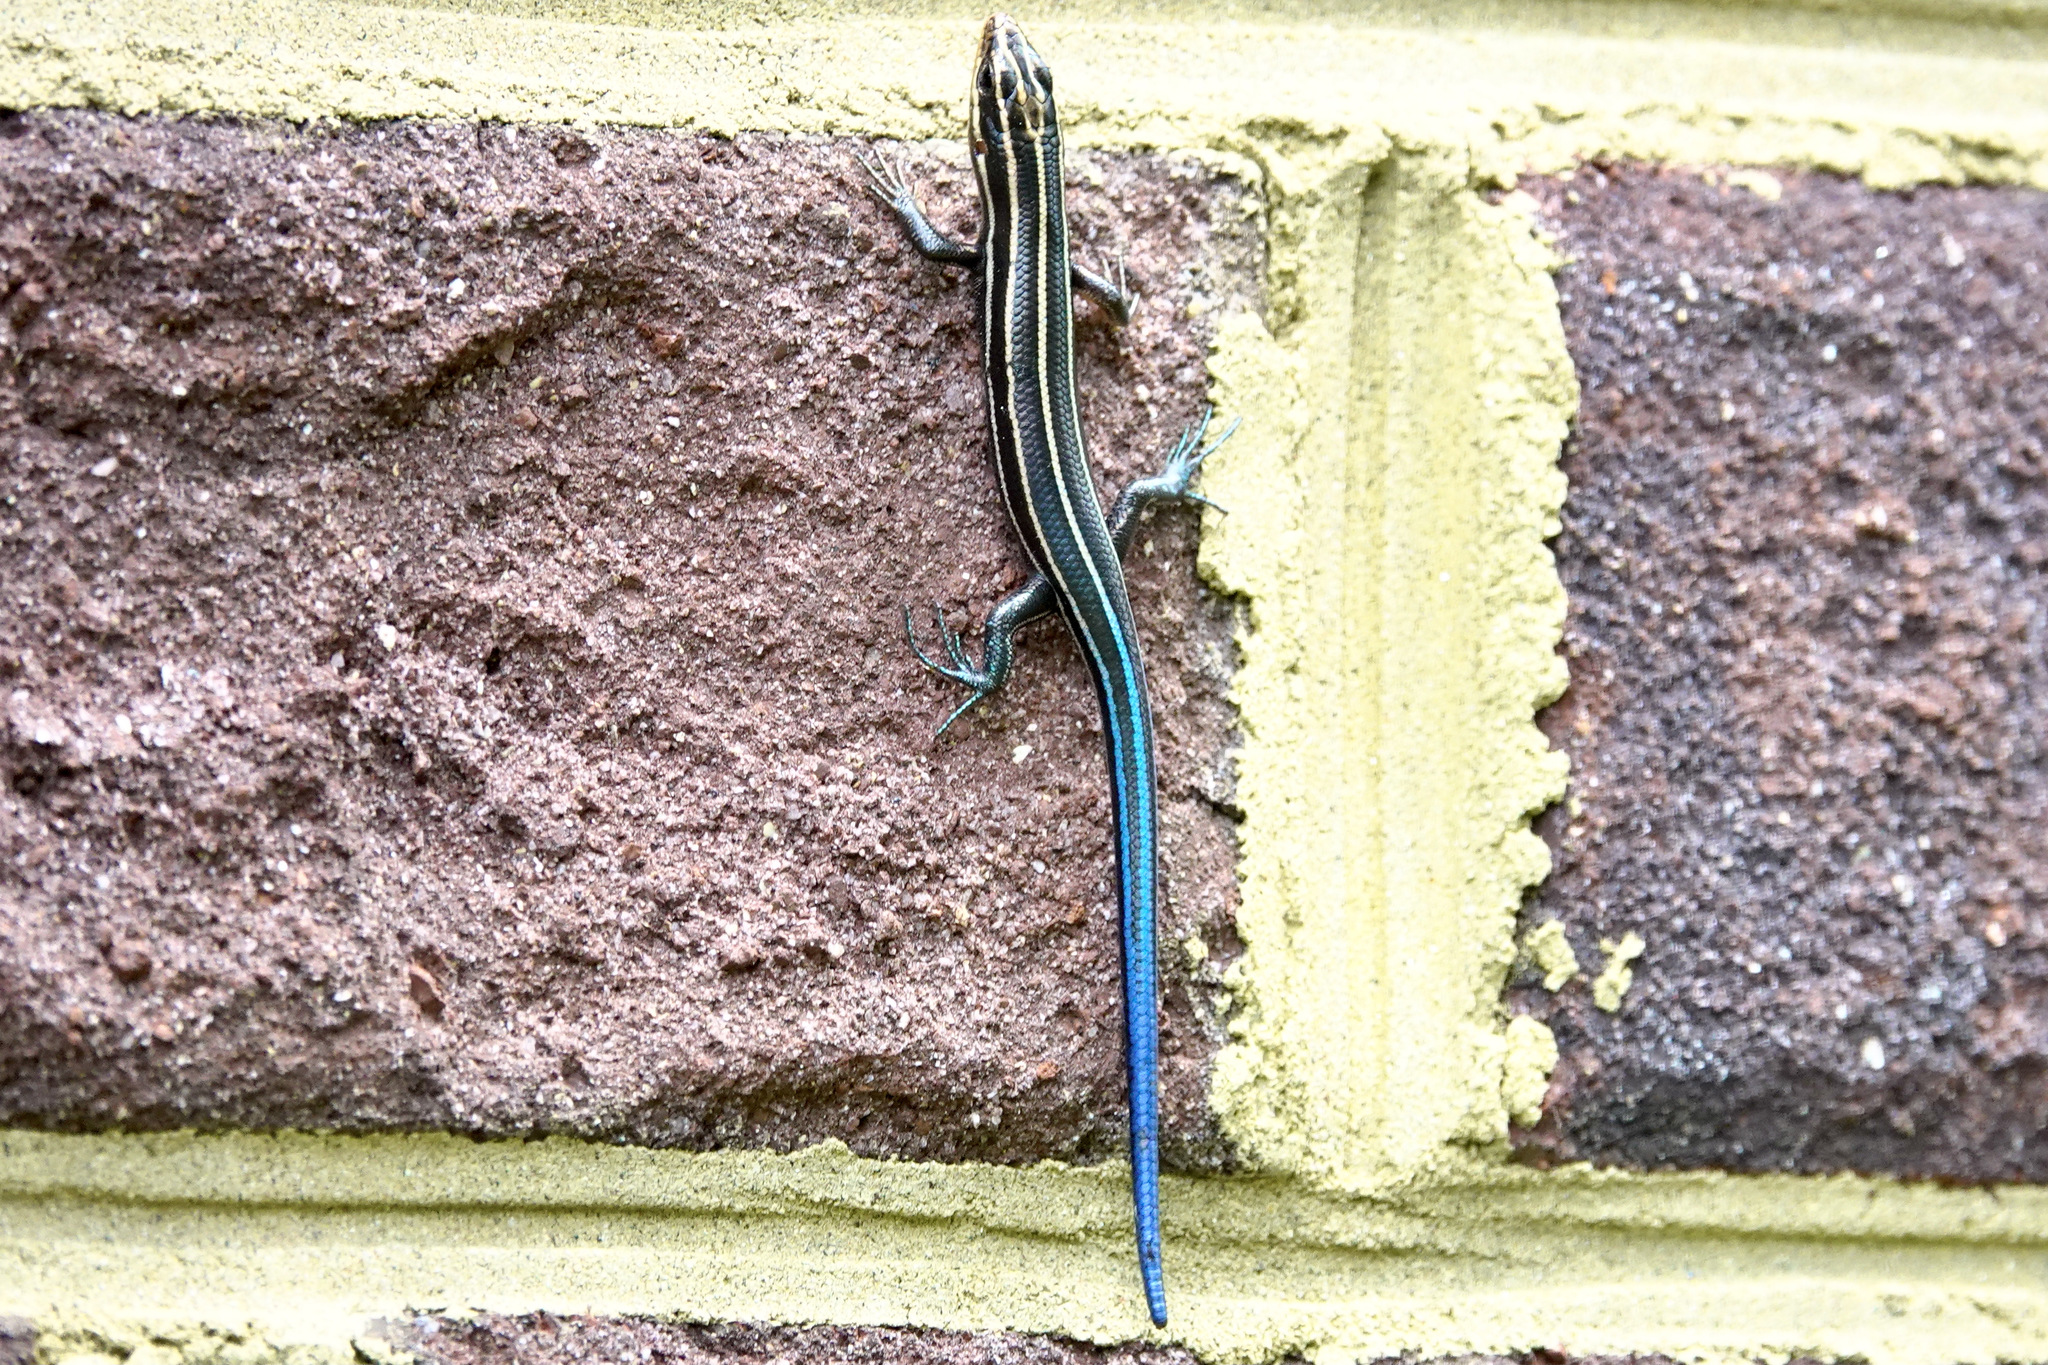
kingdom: Animalia
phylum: Chordata
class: Squamata
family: Scincidae
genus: Plestiodon
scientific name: Plestiodon fasciatus
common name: Five-lined skink
